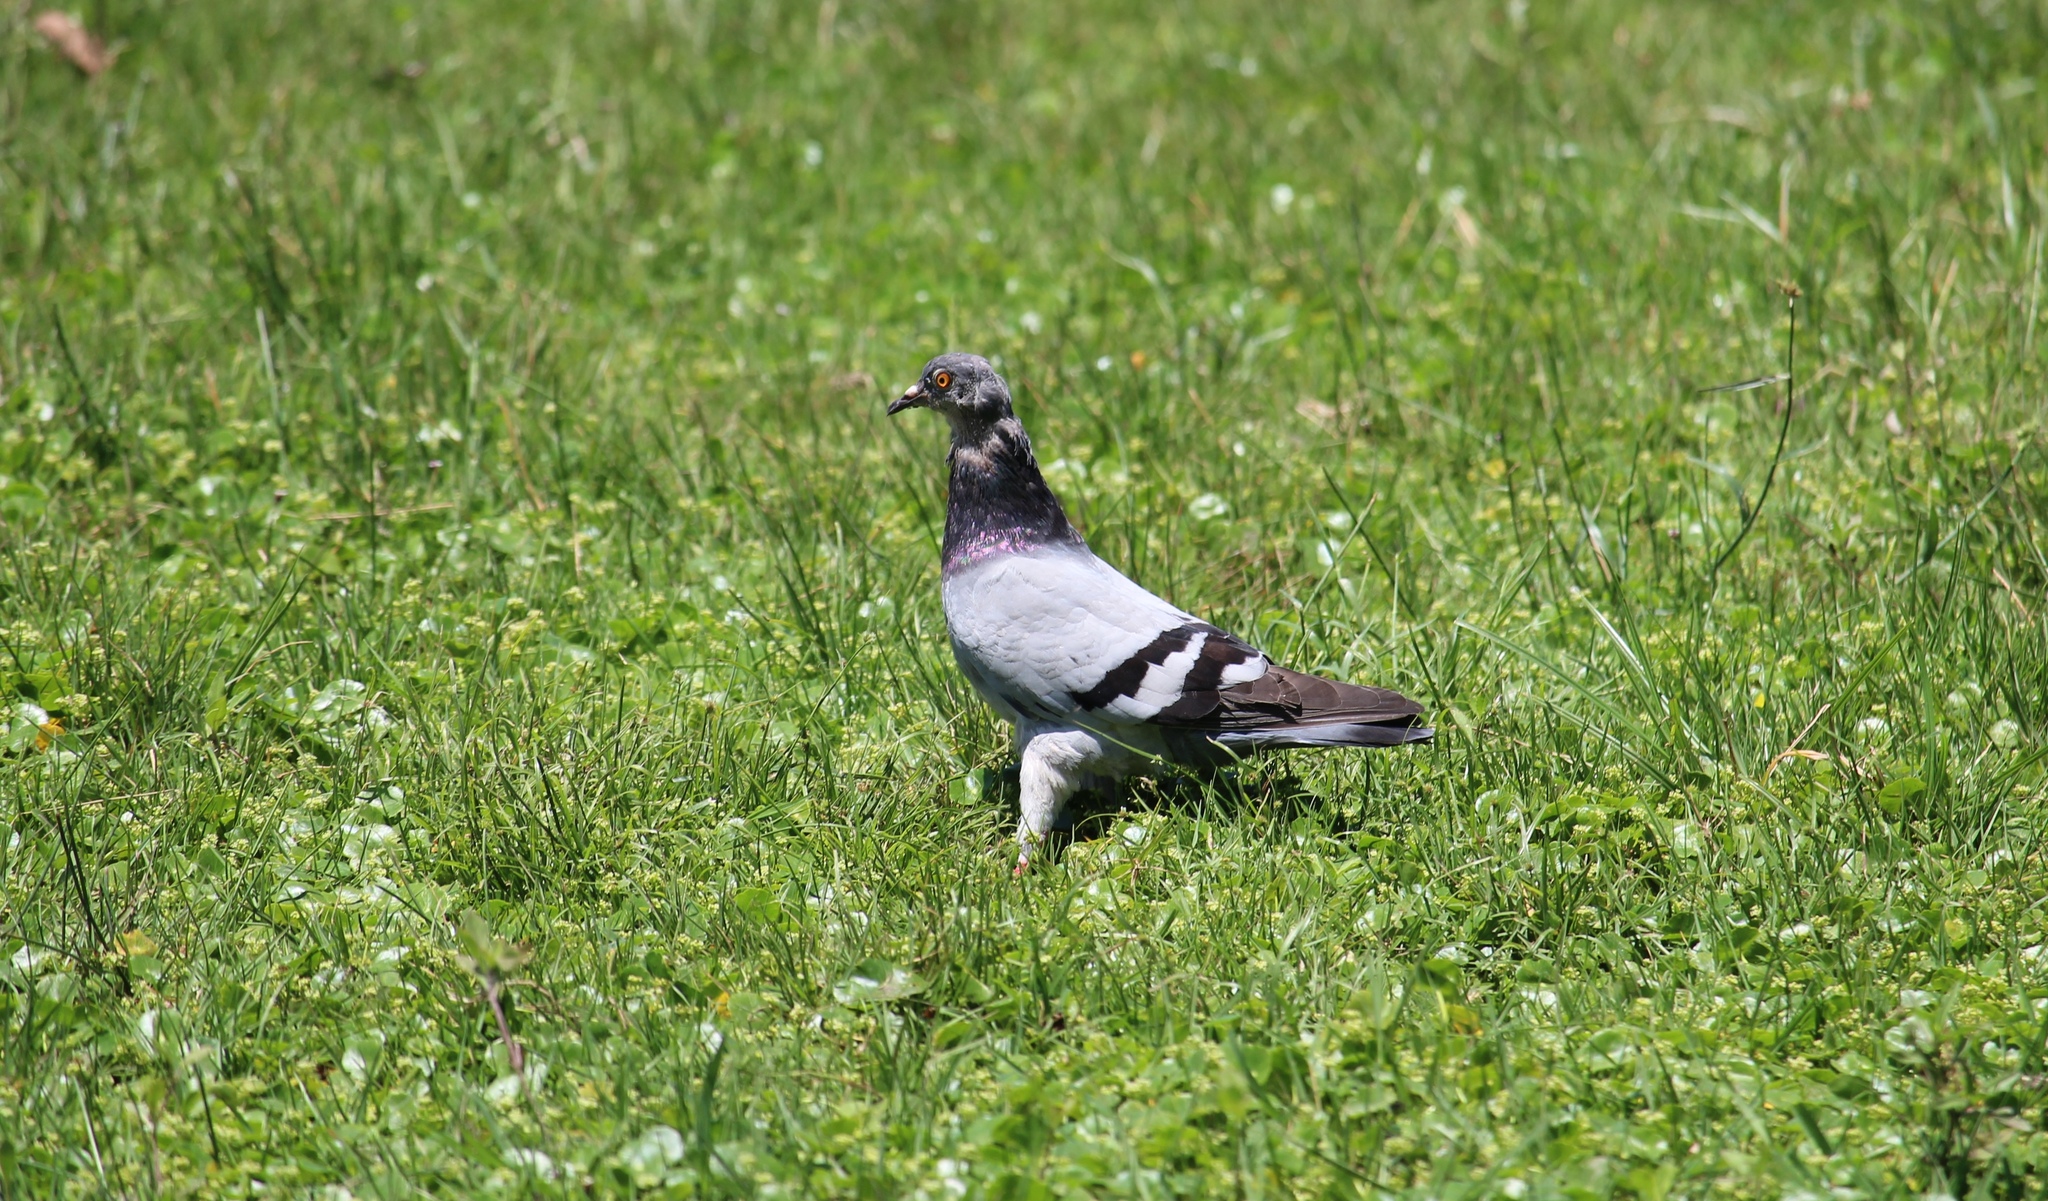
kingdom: Animalia
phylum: Chordata
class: Aves
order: Columbiformes
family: Columbidae
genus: Columba
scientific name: Columba livia
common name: Rock pigeon
